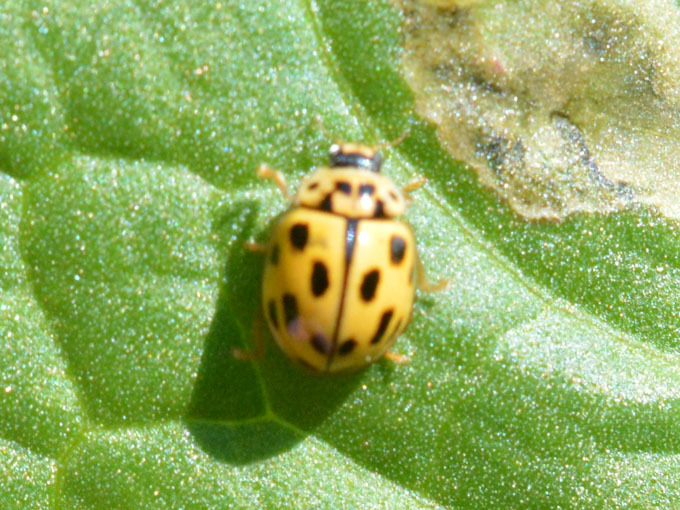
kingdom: Animalia
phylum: Arthropoda
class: Insecta
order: Coleoptera
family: Coccinellidae
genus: Propylaea
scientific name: Propylaea quatuordecimpunctata
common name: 14-spotted ladybird beetle
